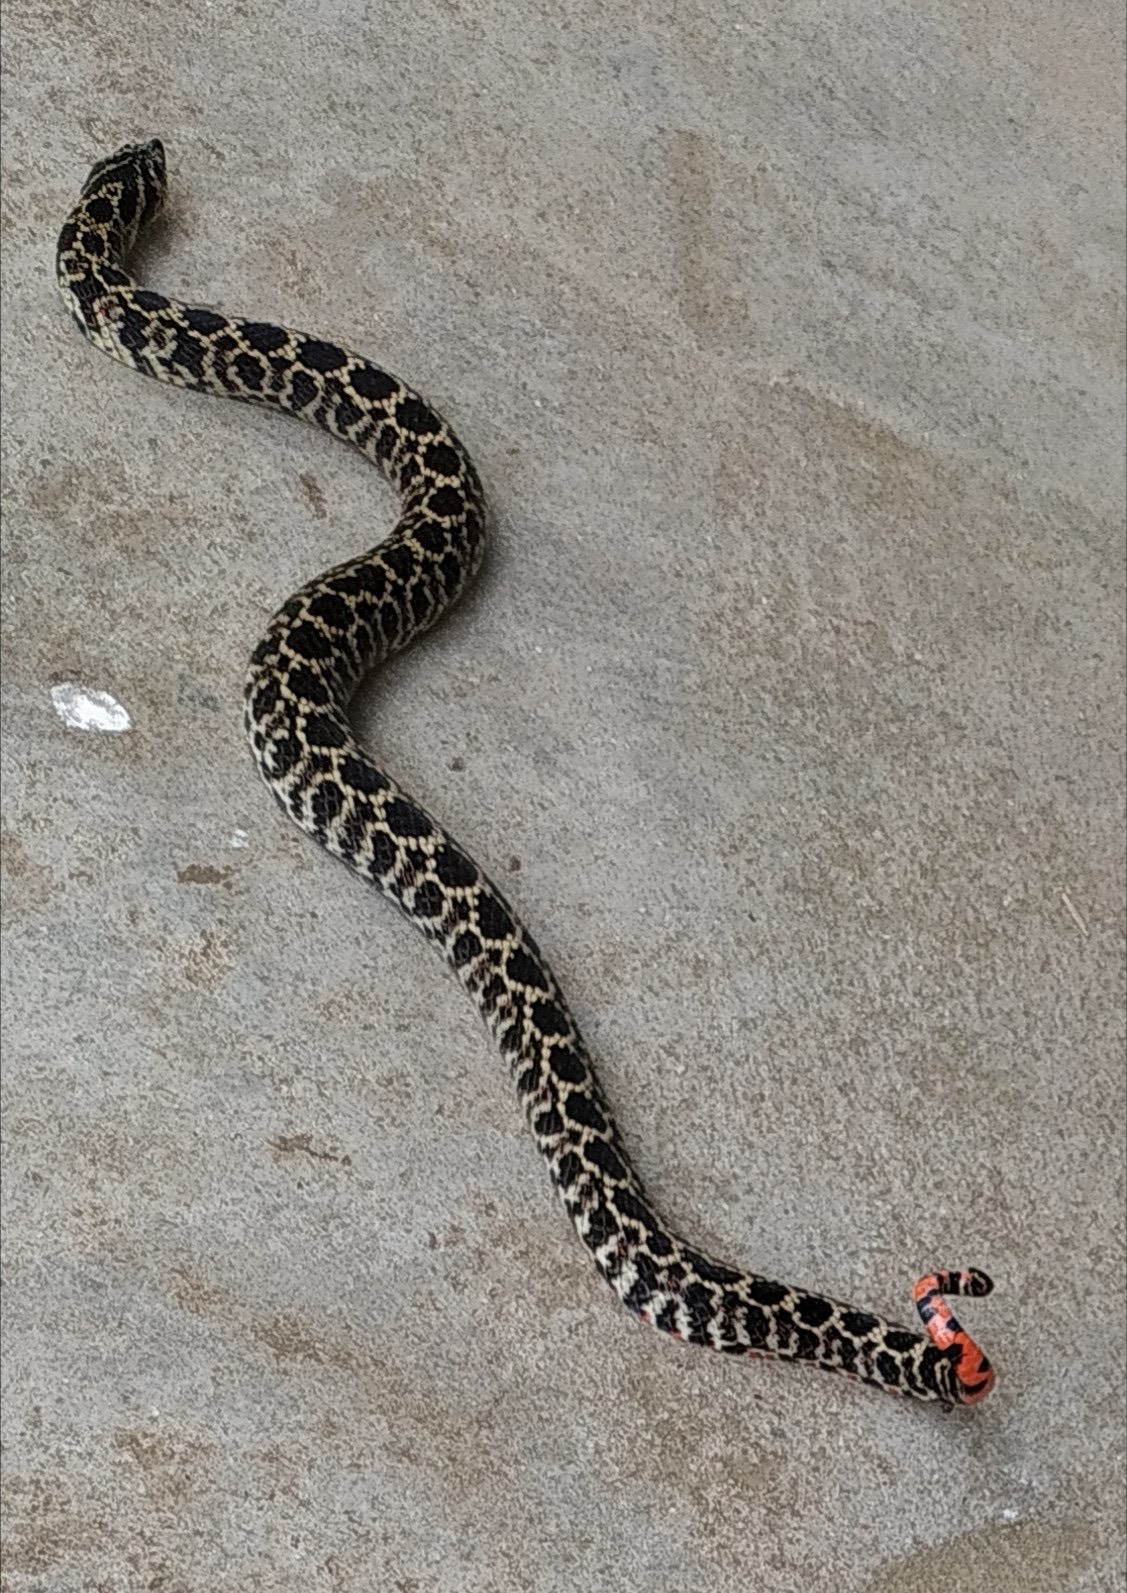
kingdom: Animalia
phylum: Chordata
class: Squamata
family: Colubridae
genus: Xenodon
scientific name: Xenodon dorbignyi
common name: South american hognose snake
